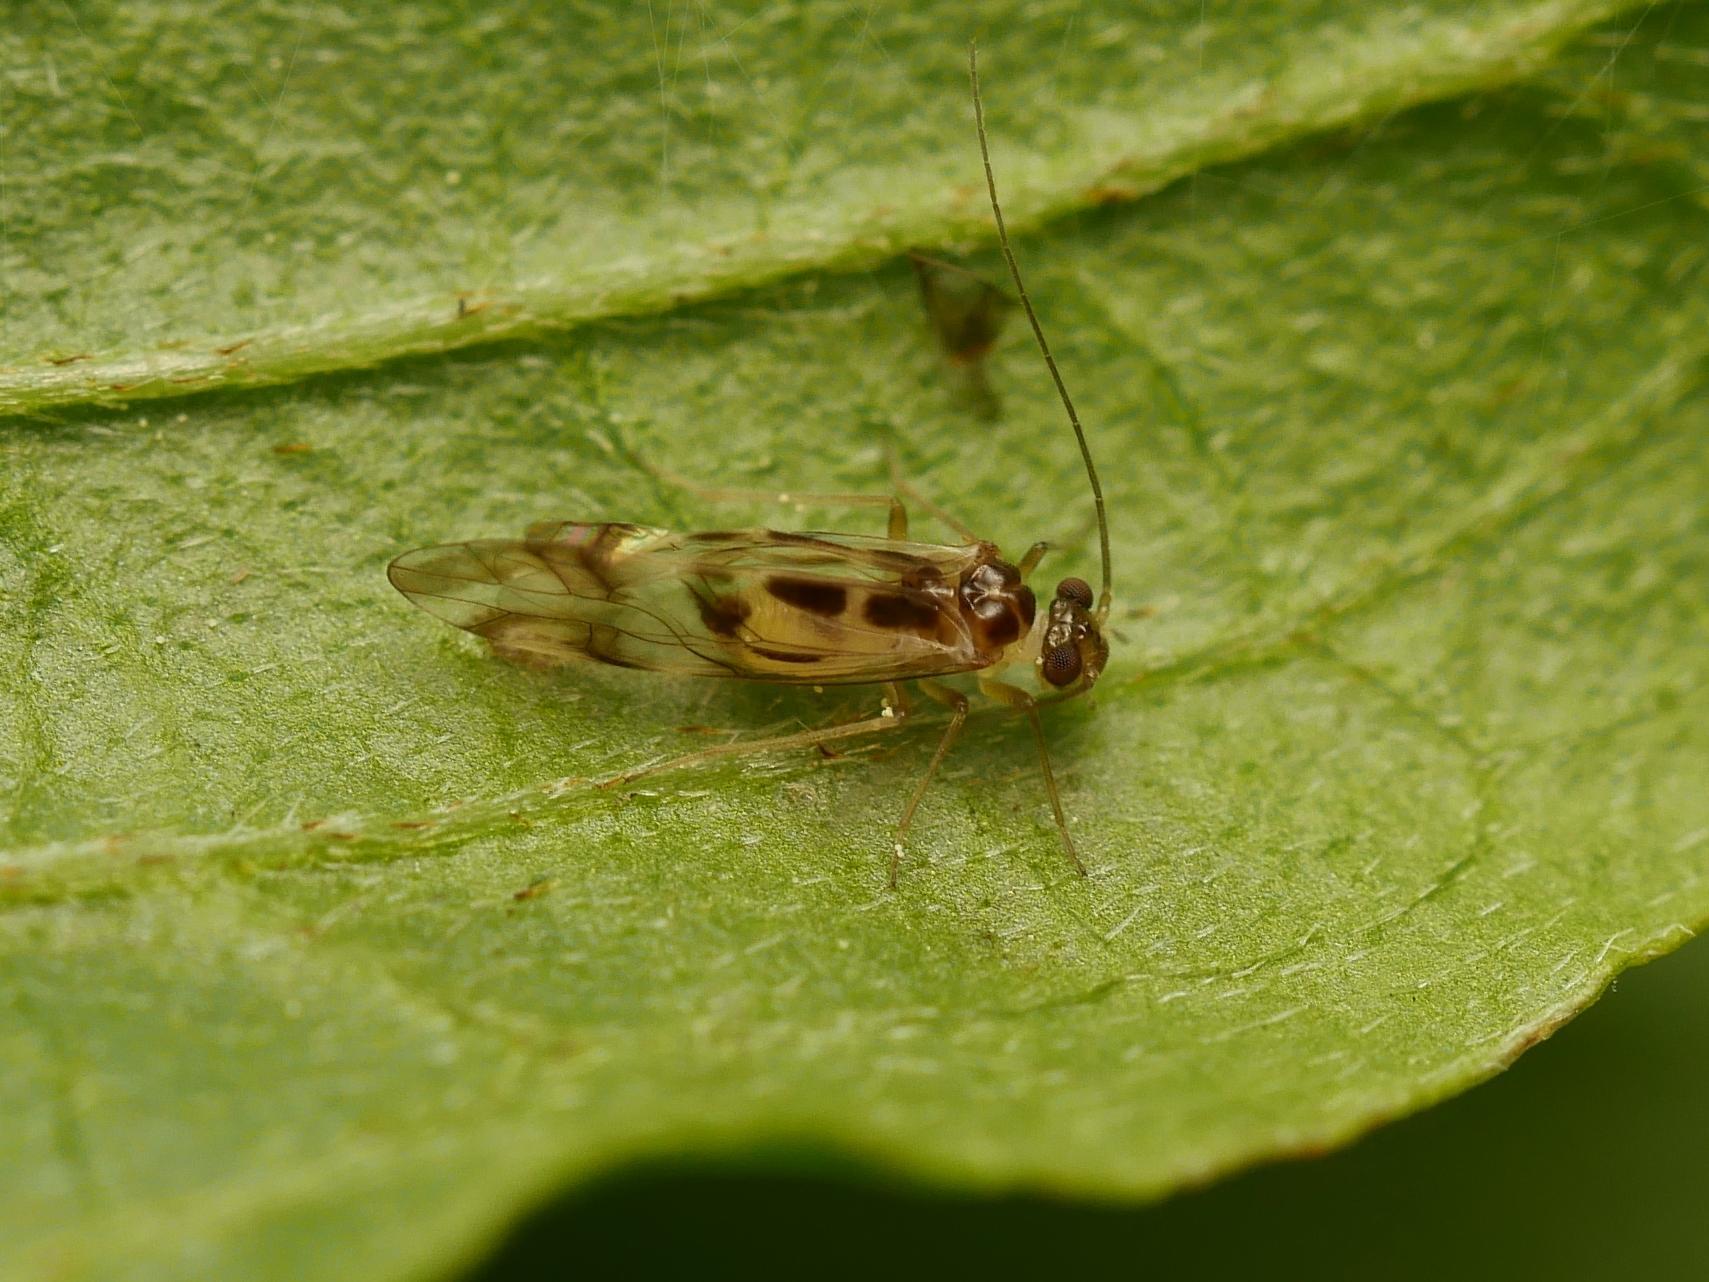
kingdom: Animalia
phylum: Arthropoda
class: Insecta
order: Psocodea
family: Stenopsocidae
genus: Graphopsocus
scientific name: Graphopsocus cruciatus
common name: Lizard bark louse
